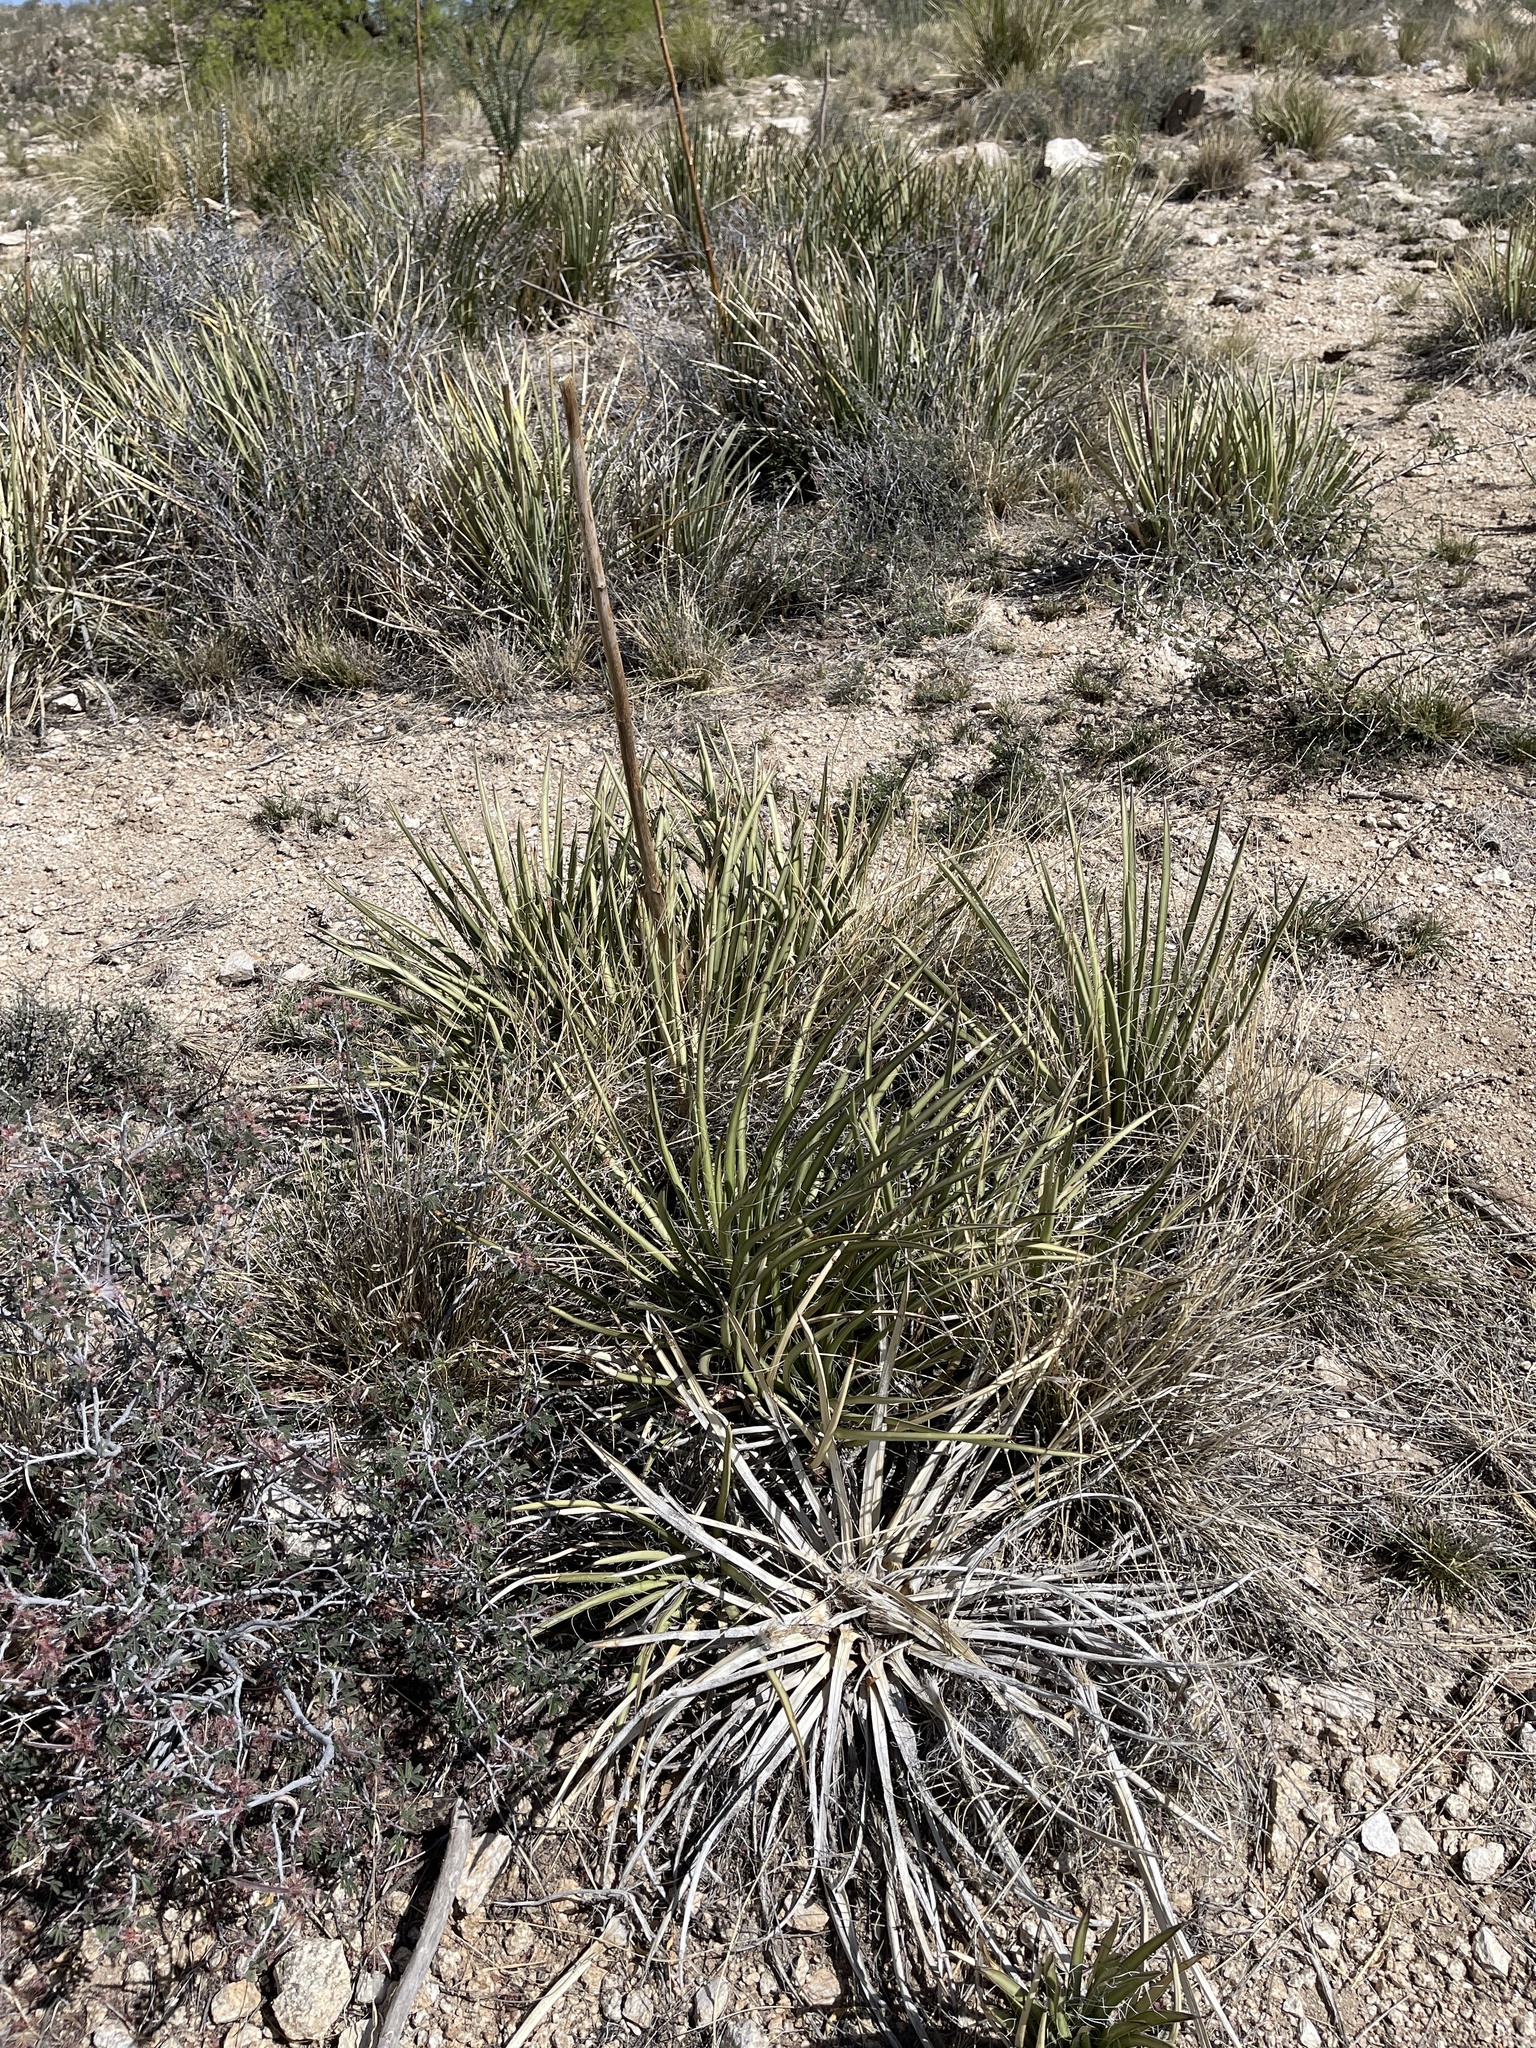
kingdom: Plantae
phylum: Tracheophyta
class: Liliopsida
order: Asparagales
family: Asparagaceae
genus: Agave
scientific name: Agave schottii
